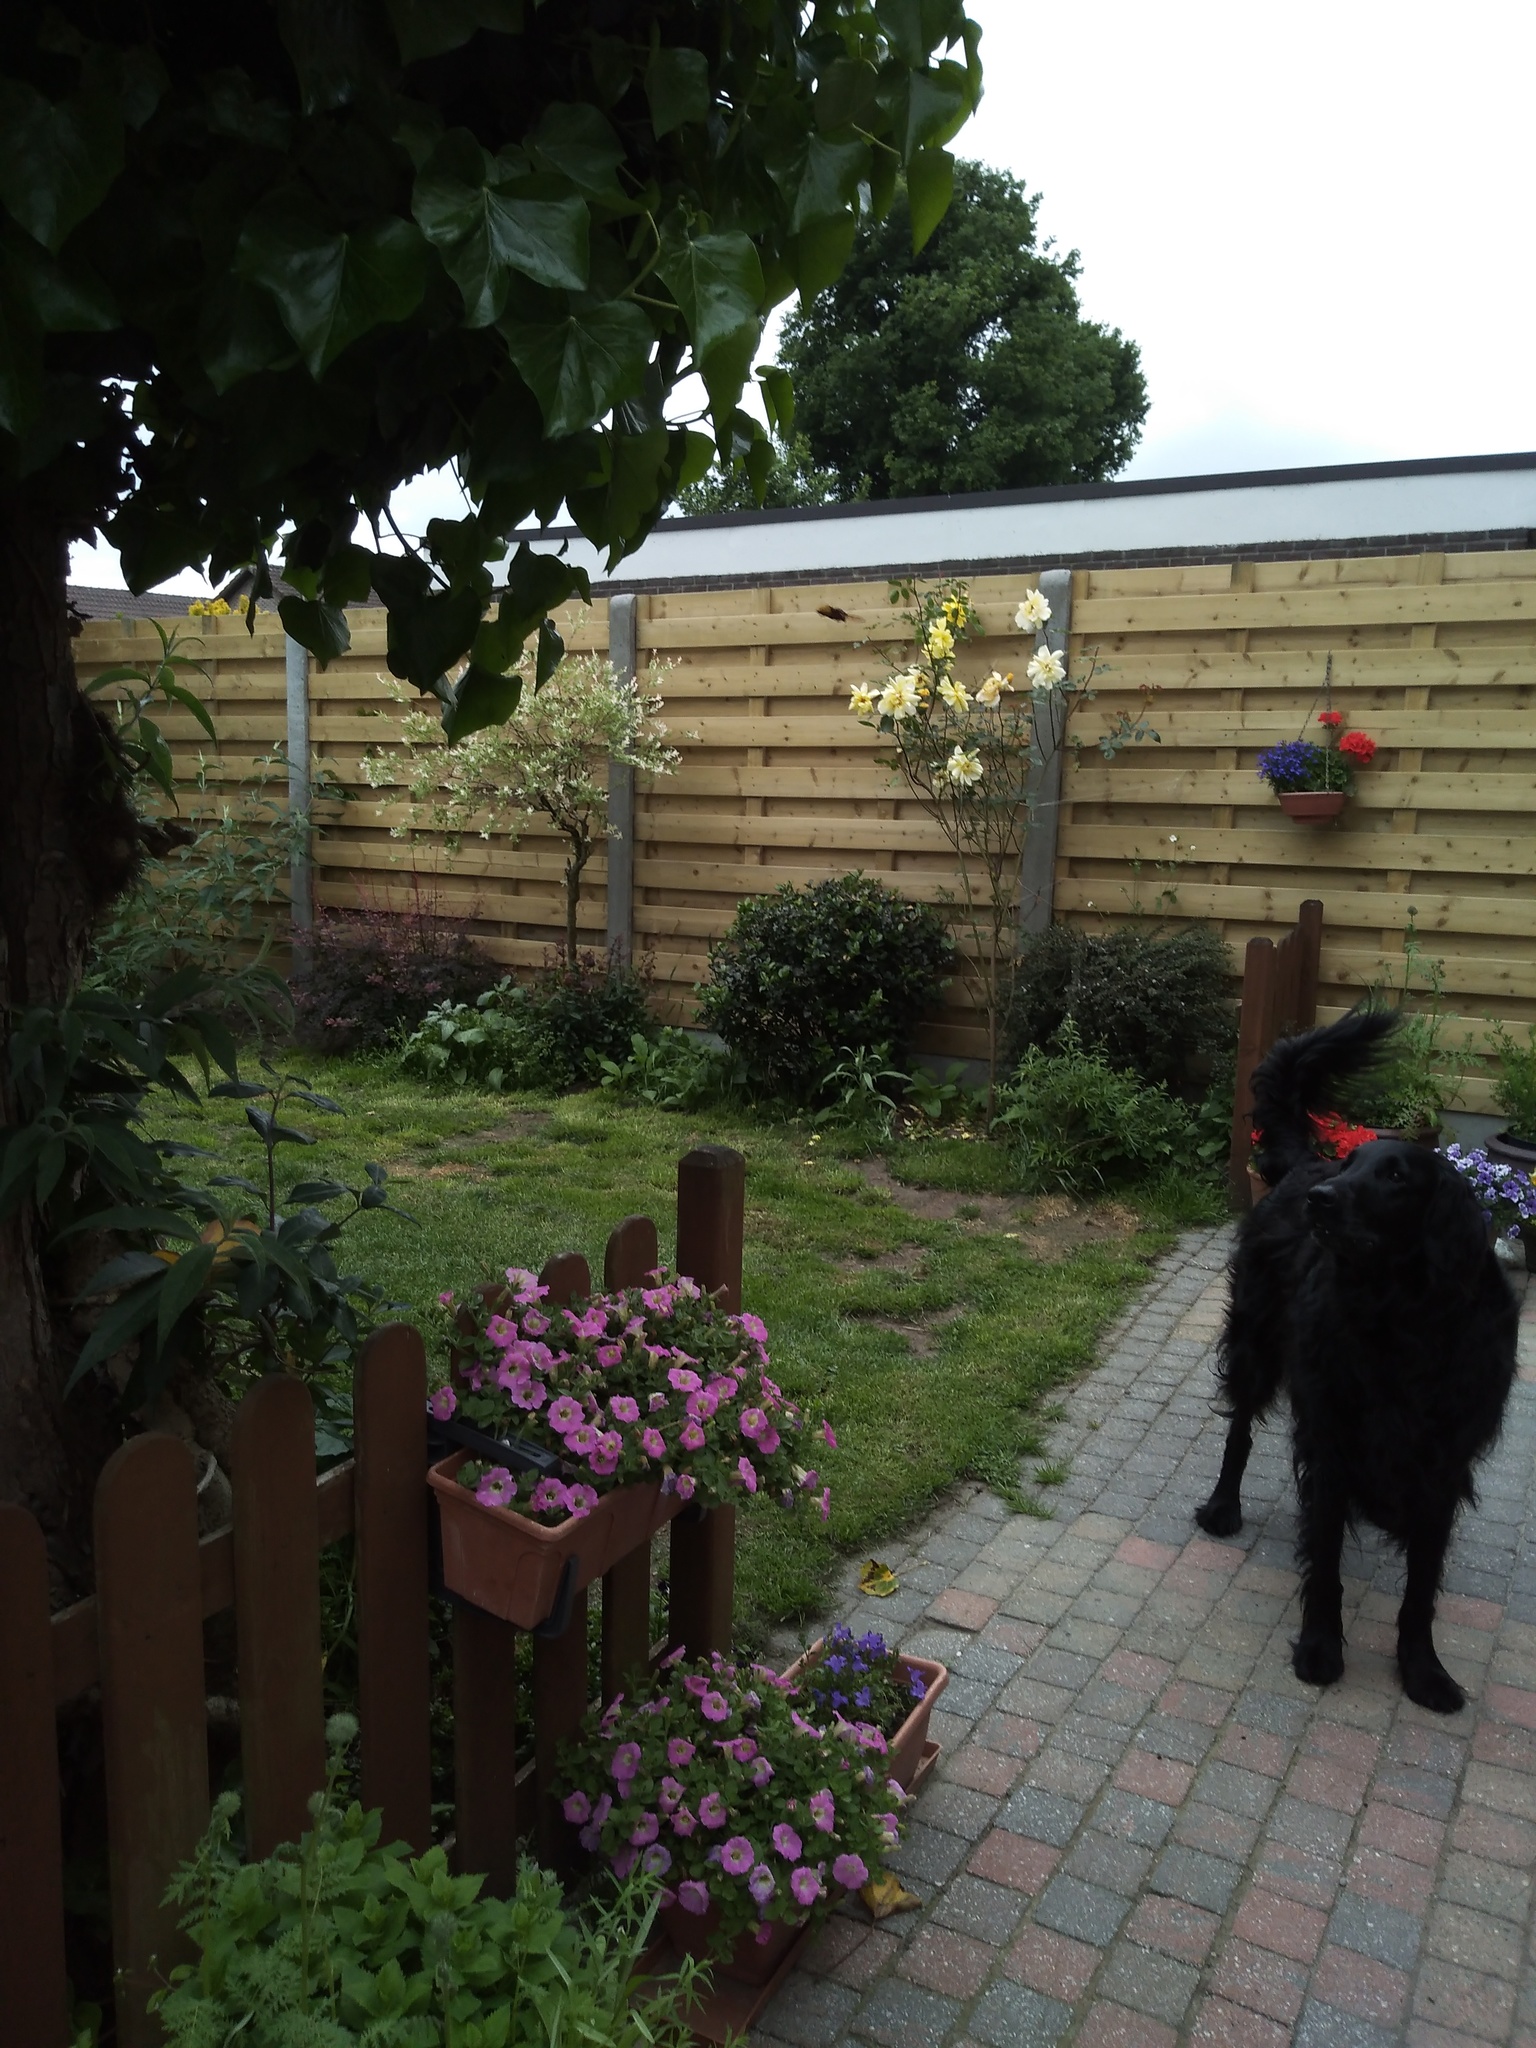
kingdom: Animalia
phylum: Arthropoda
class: Insecta
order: Hymenoptera
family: Vespidae
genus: Vespa
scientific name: Vespa crabro
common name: Hornet
